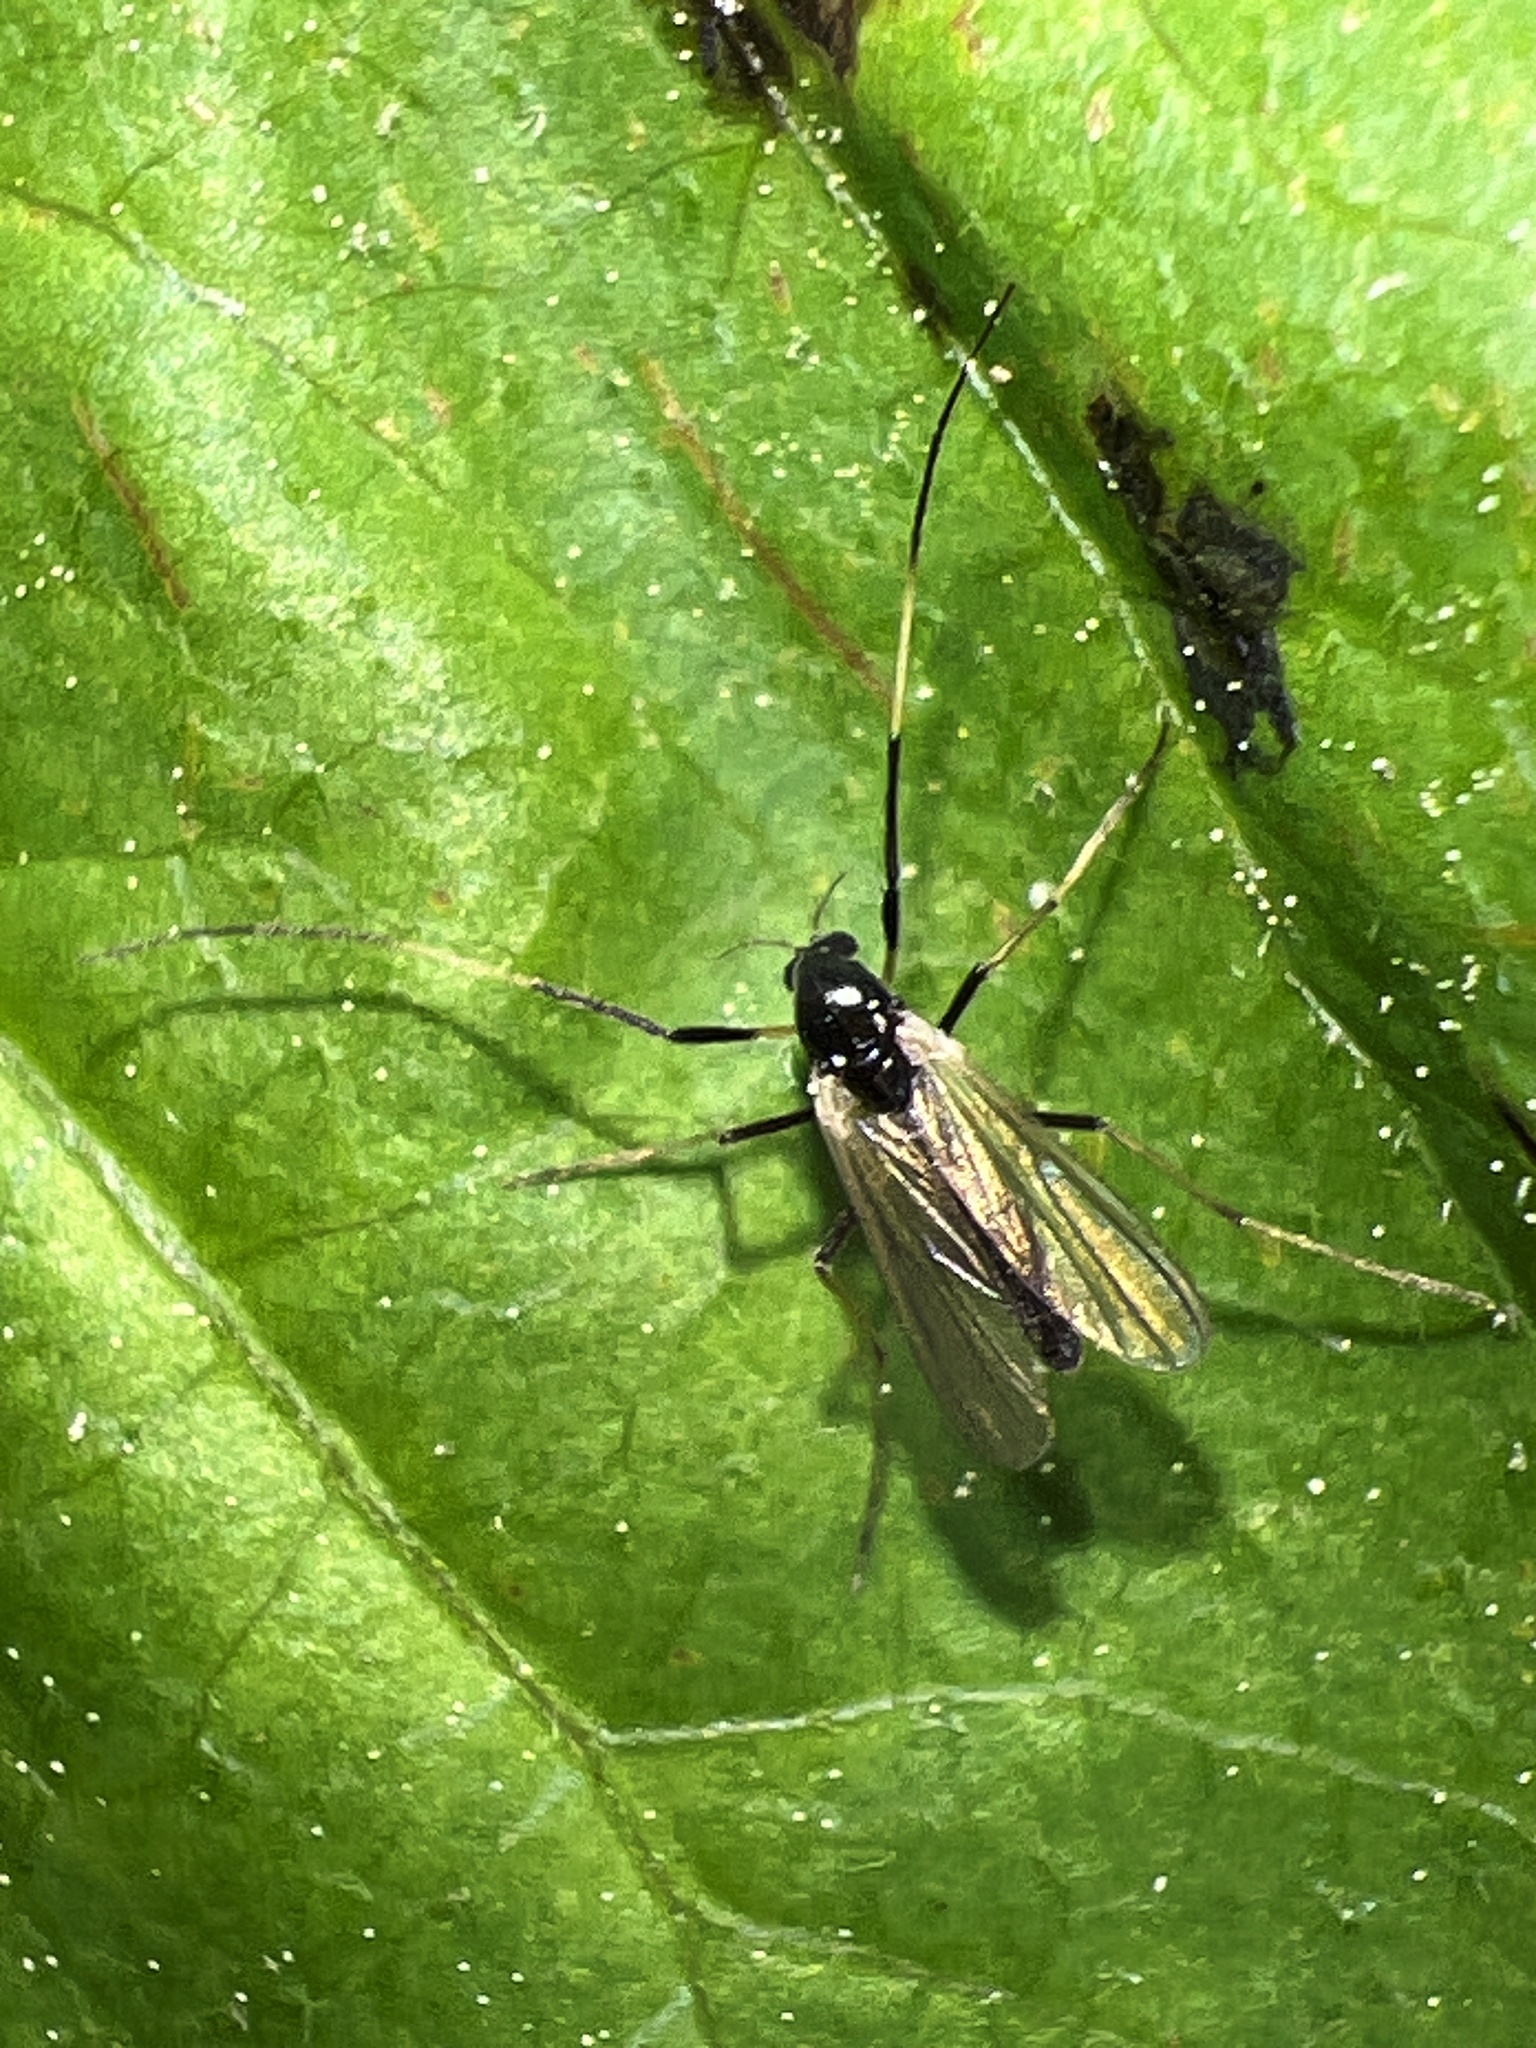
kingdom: Animalia
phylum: Arthropoda
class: Insecta
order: Diptera
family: Chironomidae
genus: Paratendipes
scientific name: Paratendipes albimanus
